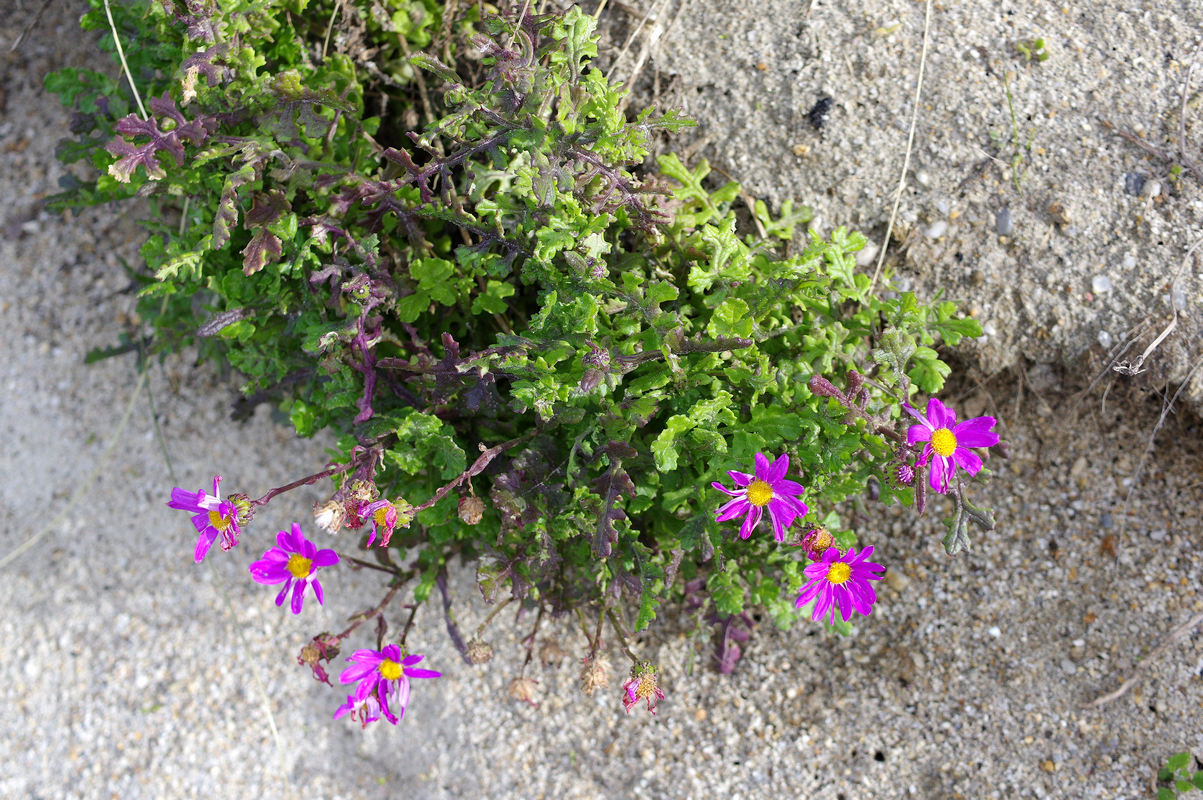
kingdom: Plantae
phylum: Tracheophyta
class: Magnoliopsida
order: Asterales
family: Asteraceae
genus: Senecio
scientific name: Senecio elegans
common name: Purple groundsel
